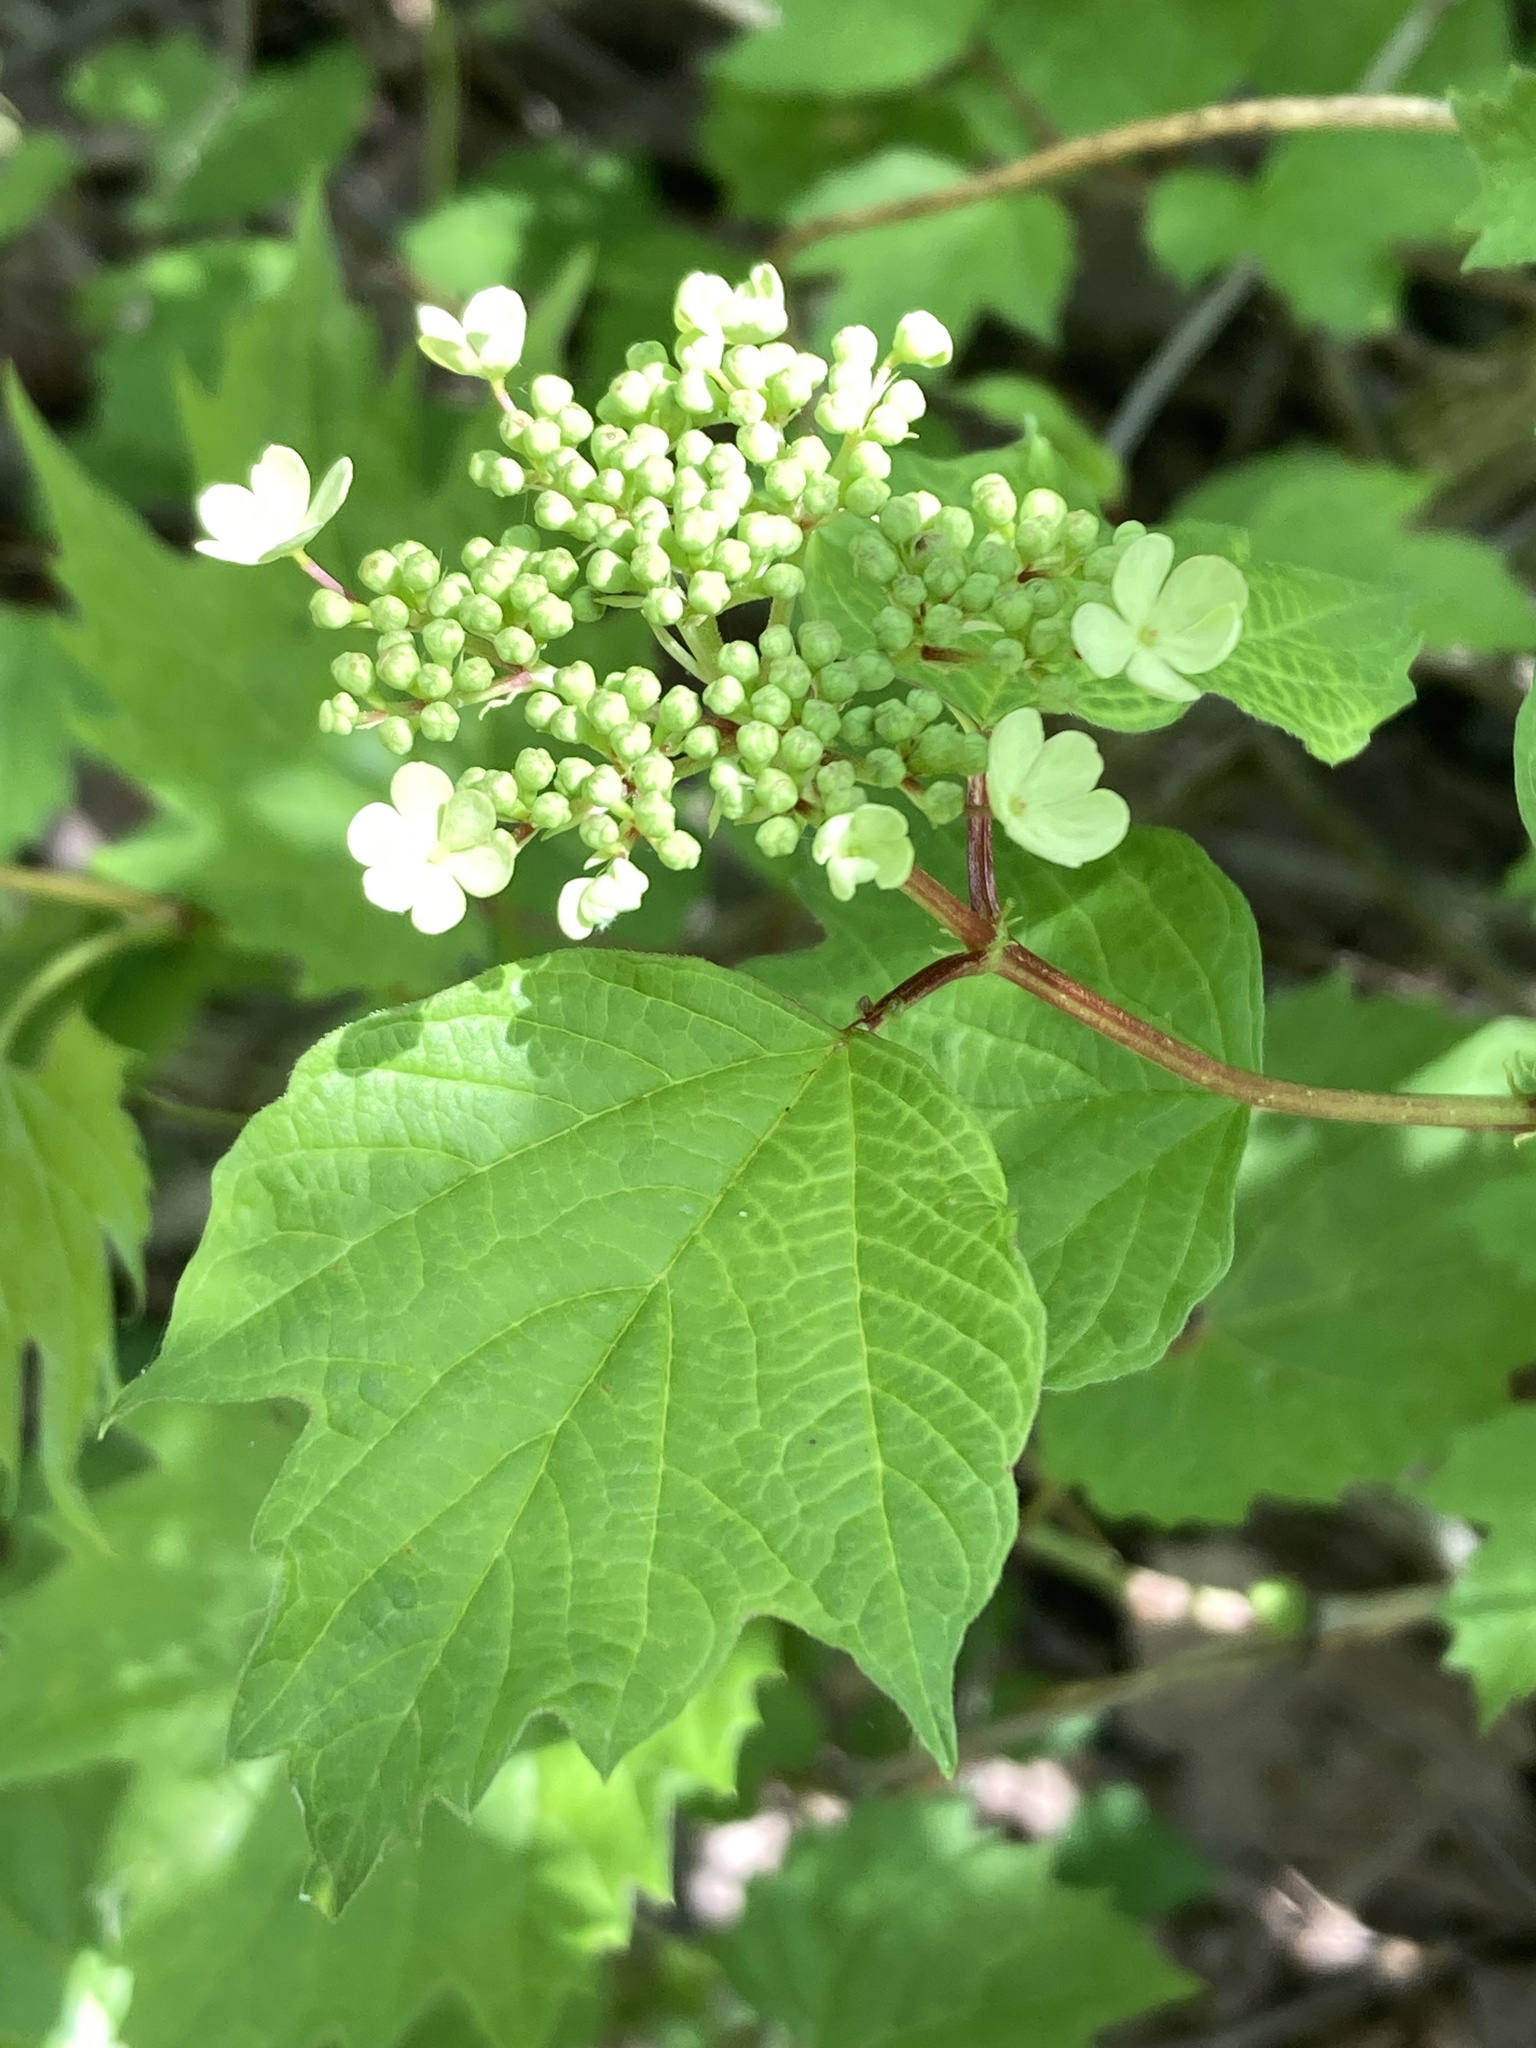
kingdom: Plantae
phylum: Tracheophyta
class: Magnoliopsida
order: Dipsacales
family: Viburnaceae
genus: Viburnum
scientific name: Viburnum opulus
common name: Guelder-rose
